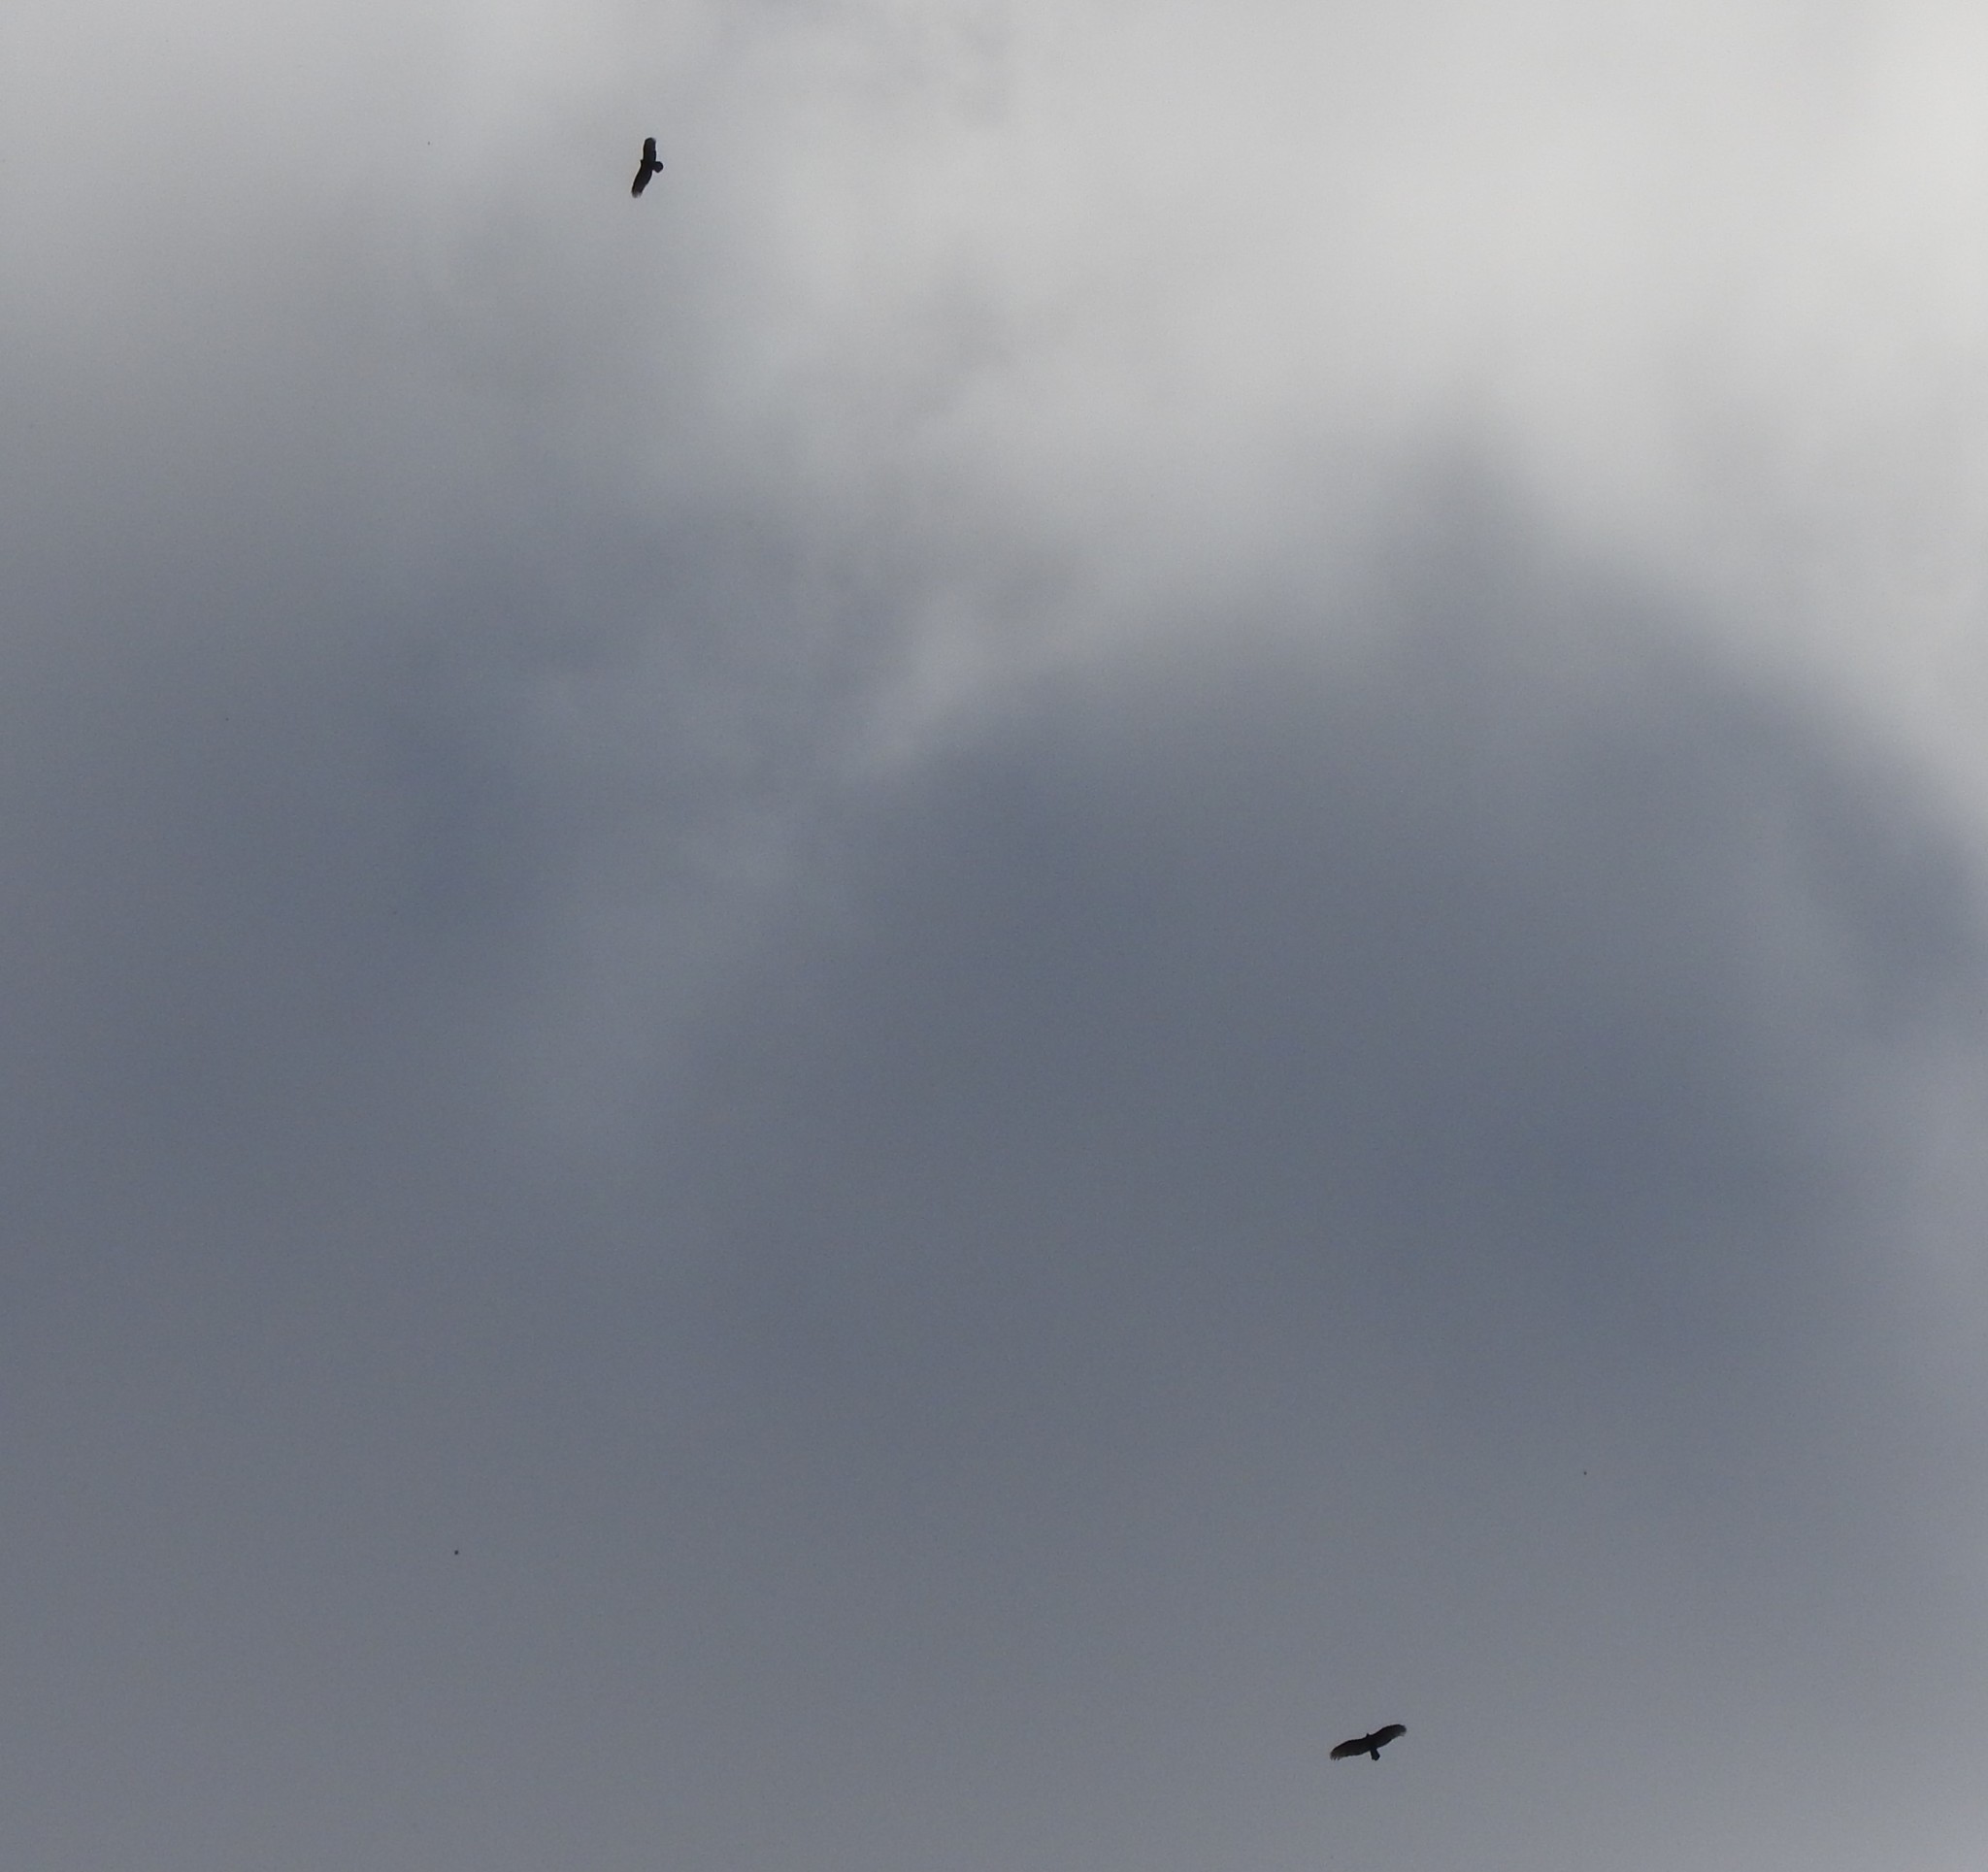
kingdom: Animalia
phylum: Chordata
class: Aves
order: Accipitriformes
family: Cathartidae
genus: Cathartes
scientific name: Cathartes aura
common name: Turkey vulture
